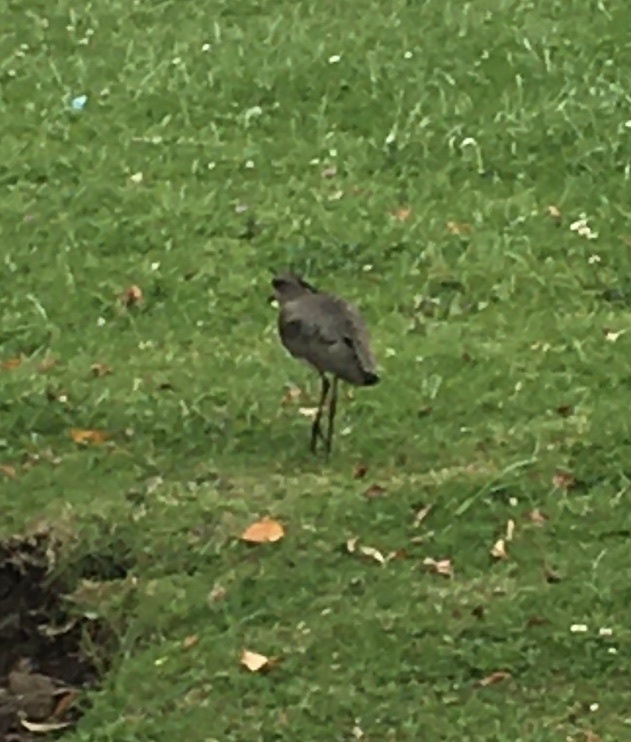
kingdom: Animalia
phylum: Chordata
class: Aves
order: Charadriiformes
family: Charadriidae
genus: Vanellus
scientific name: Vanellus chilensis
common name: Southern lapwing
